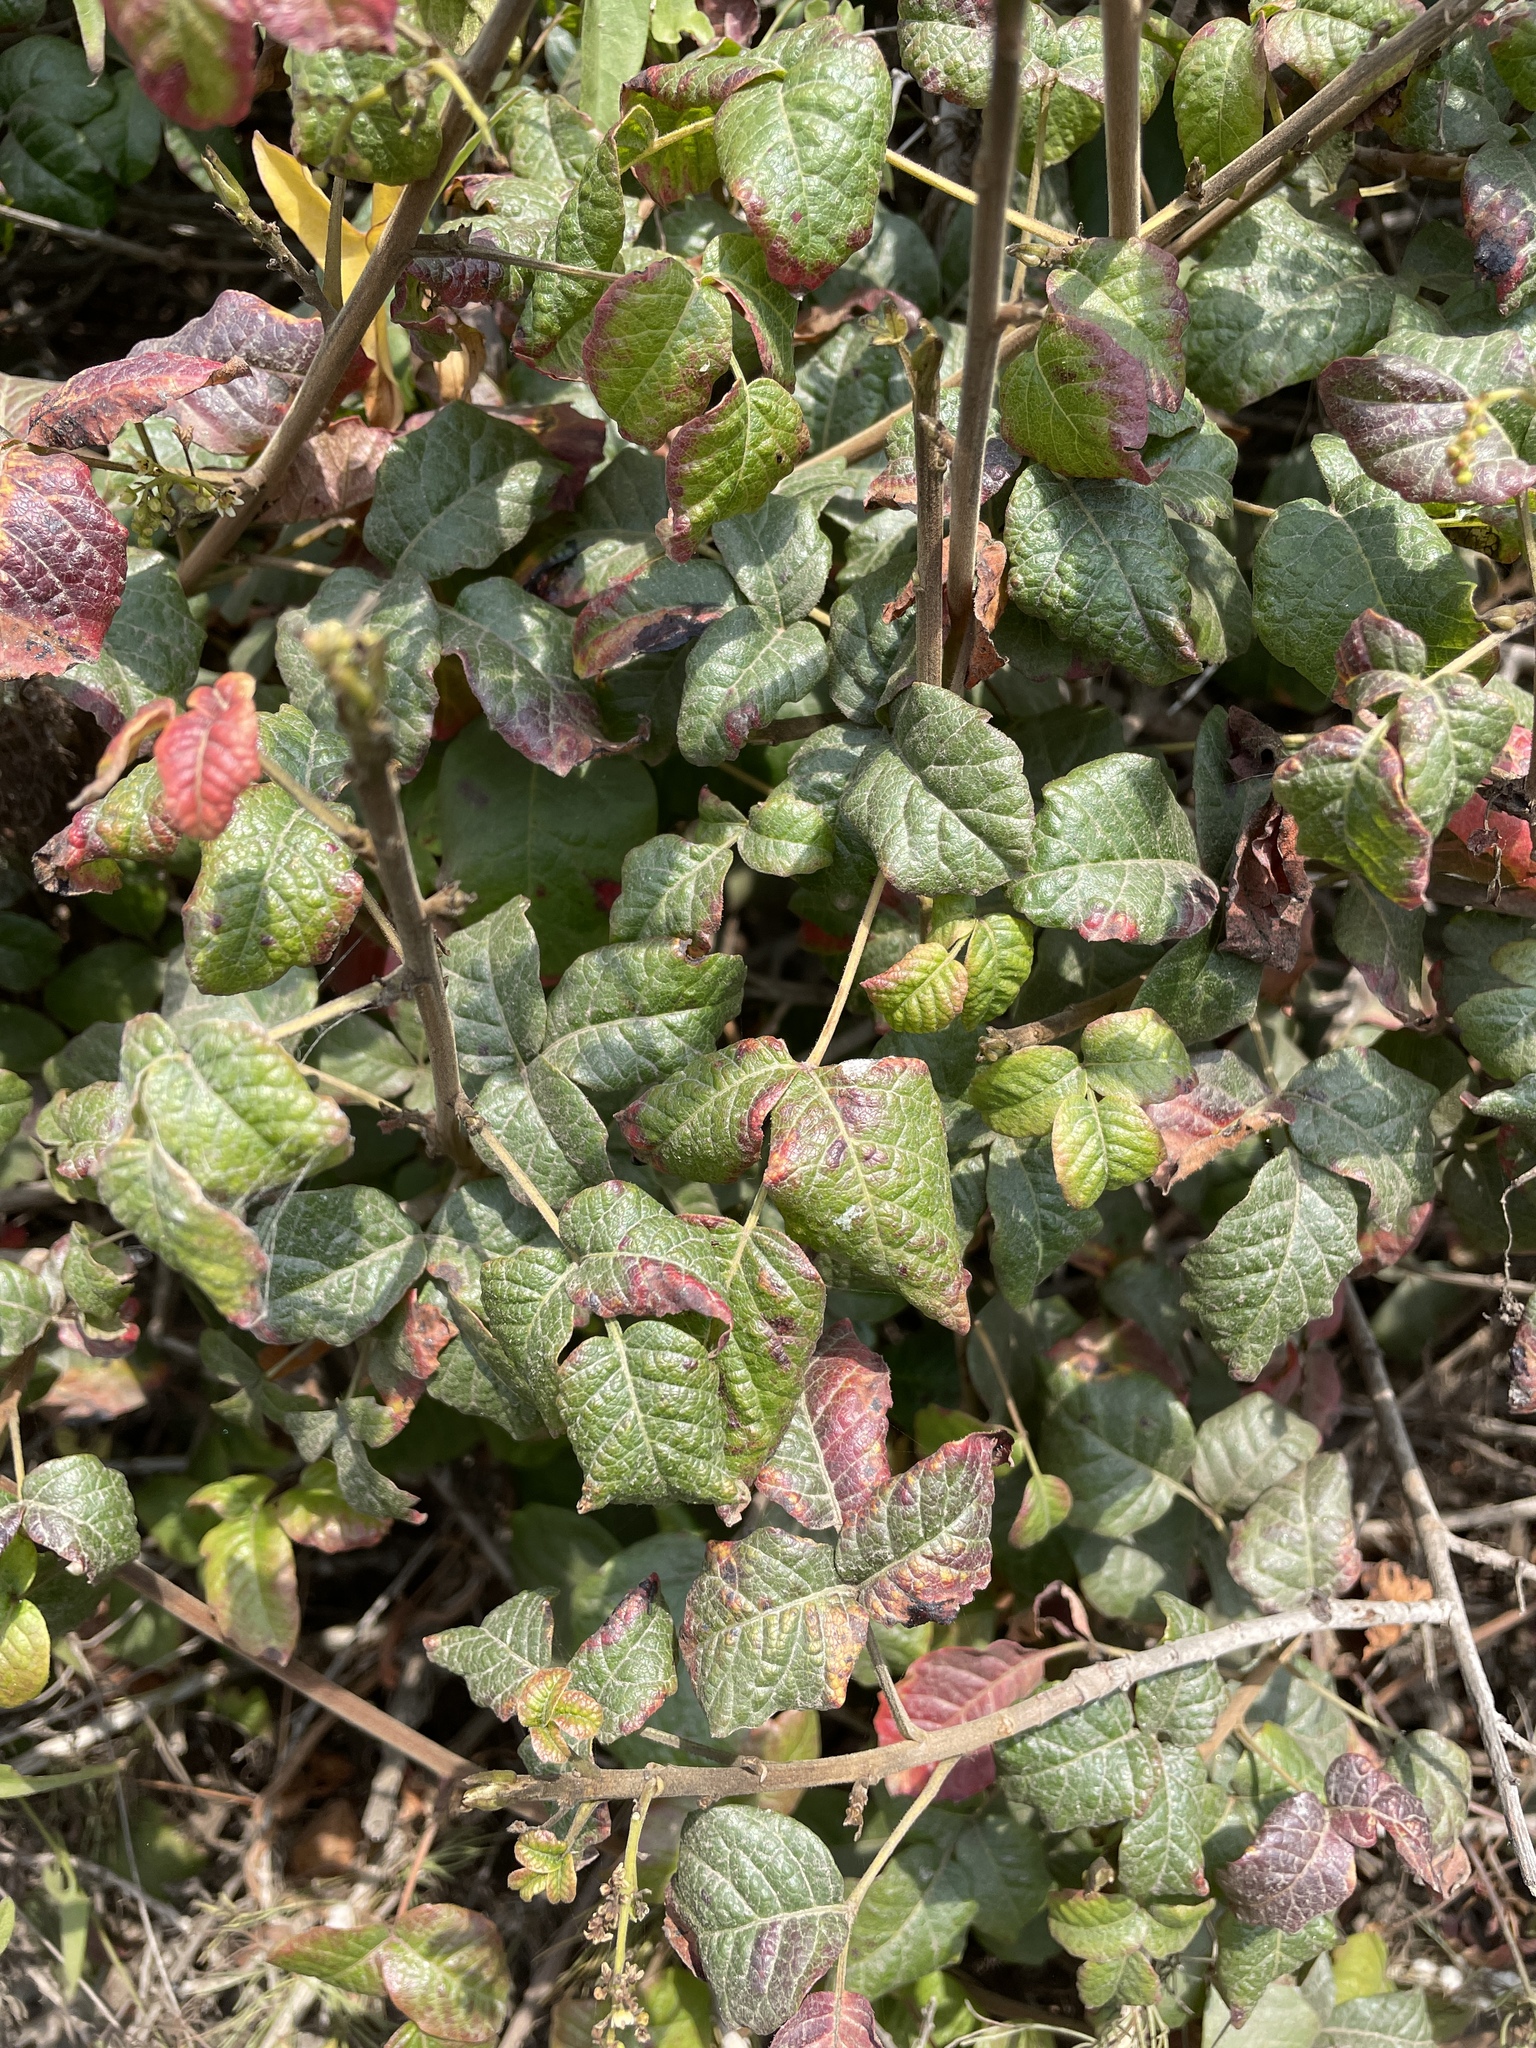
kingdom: Plantae
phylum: Tracheophyta
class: Magnoliopsida
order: Sapindales
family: Anacardiaceae
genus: Toxicodendron
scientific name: Toxicodendron diversilobum
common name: Pacific poison-oak
